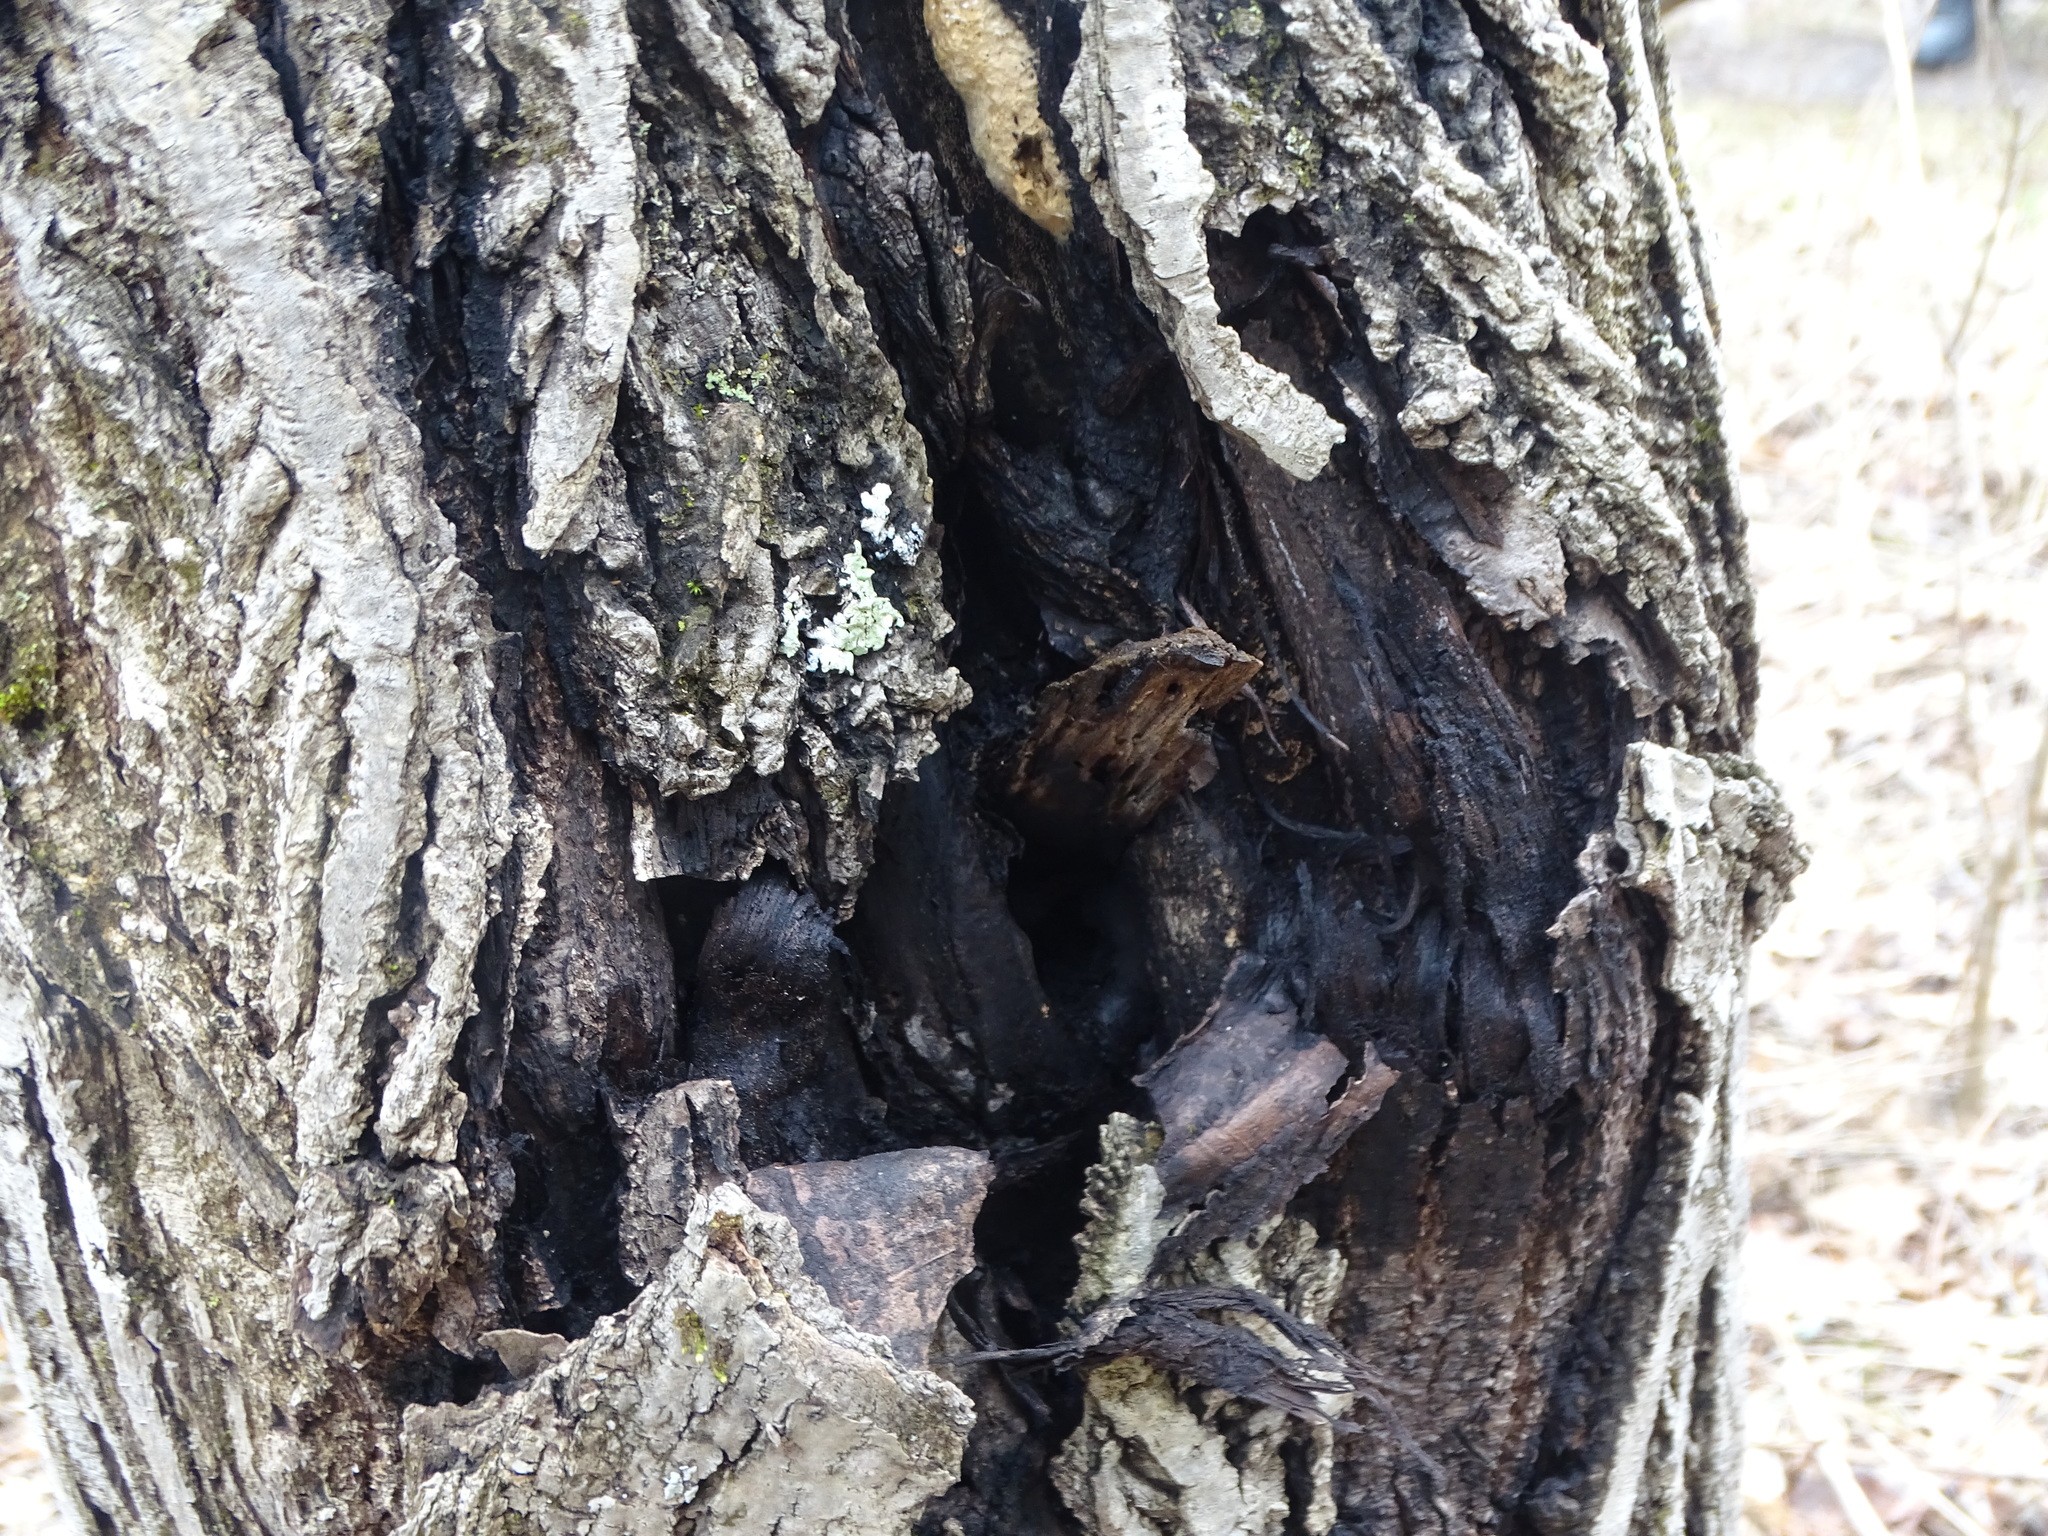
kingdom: Fungi
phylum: Ascomycota
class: Sordariomycetes
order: Diaporthales
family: Gnomoniaceae
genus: Ophiognomonia
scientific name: Ophiognomonia clavigignenti-juglandacearum
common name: Butternut canker fungus
